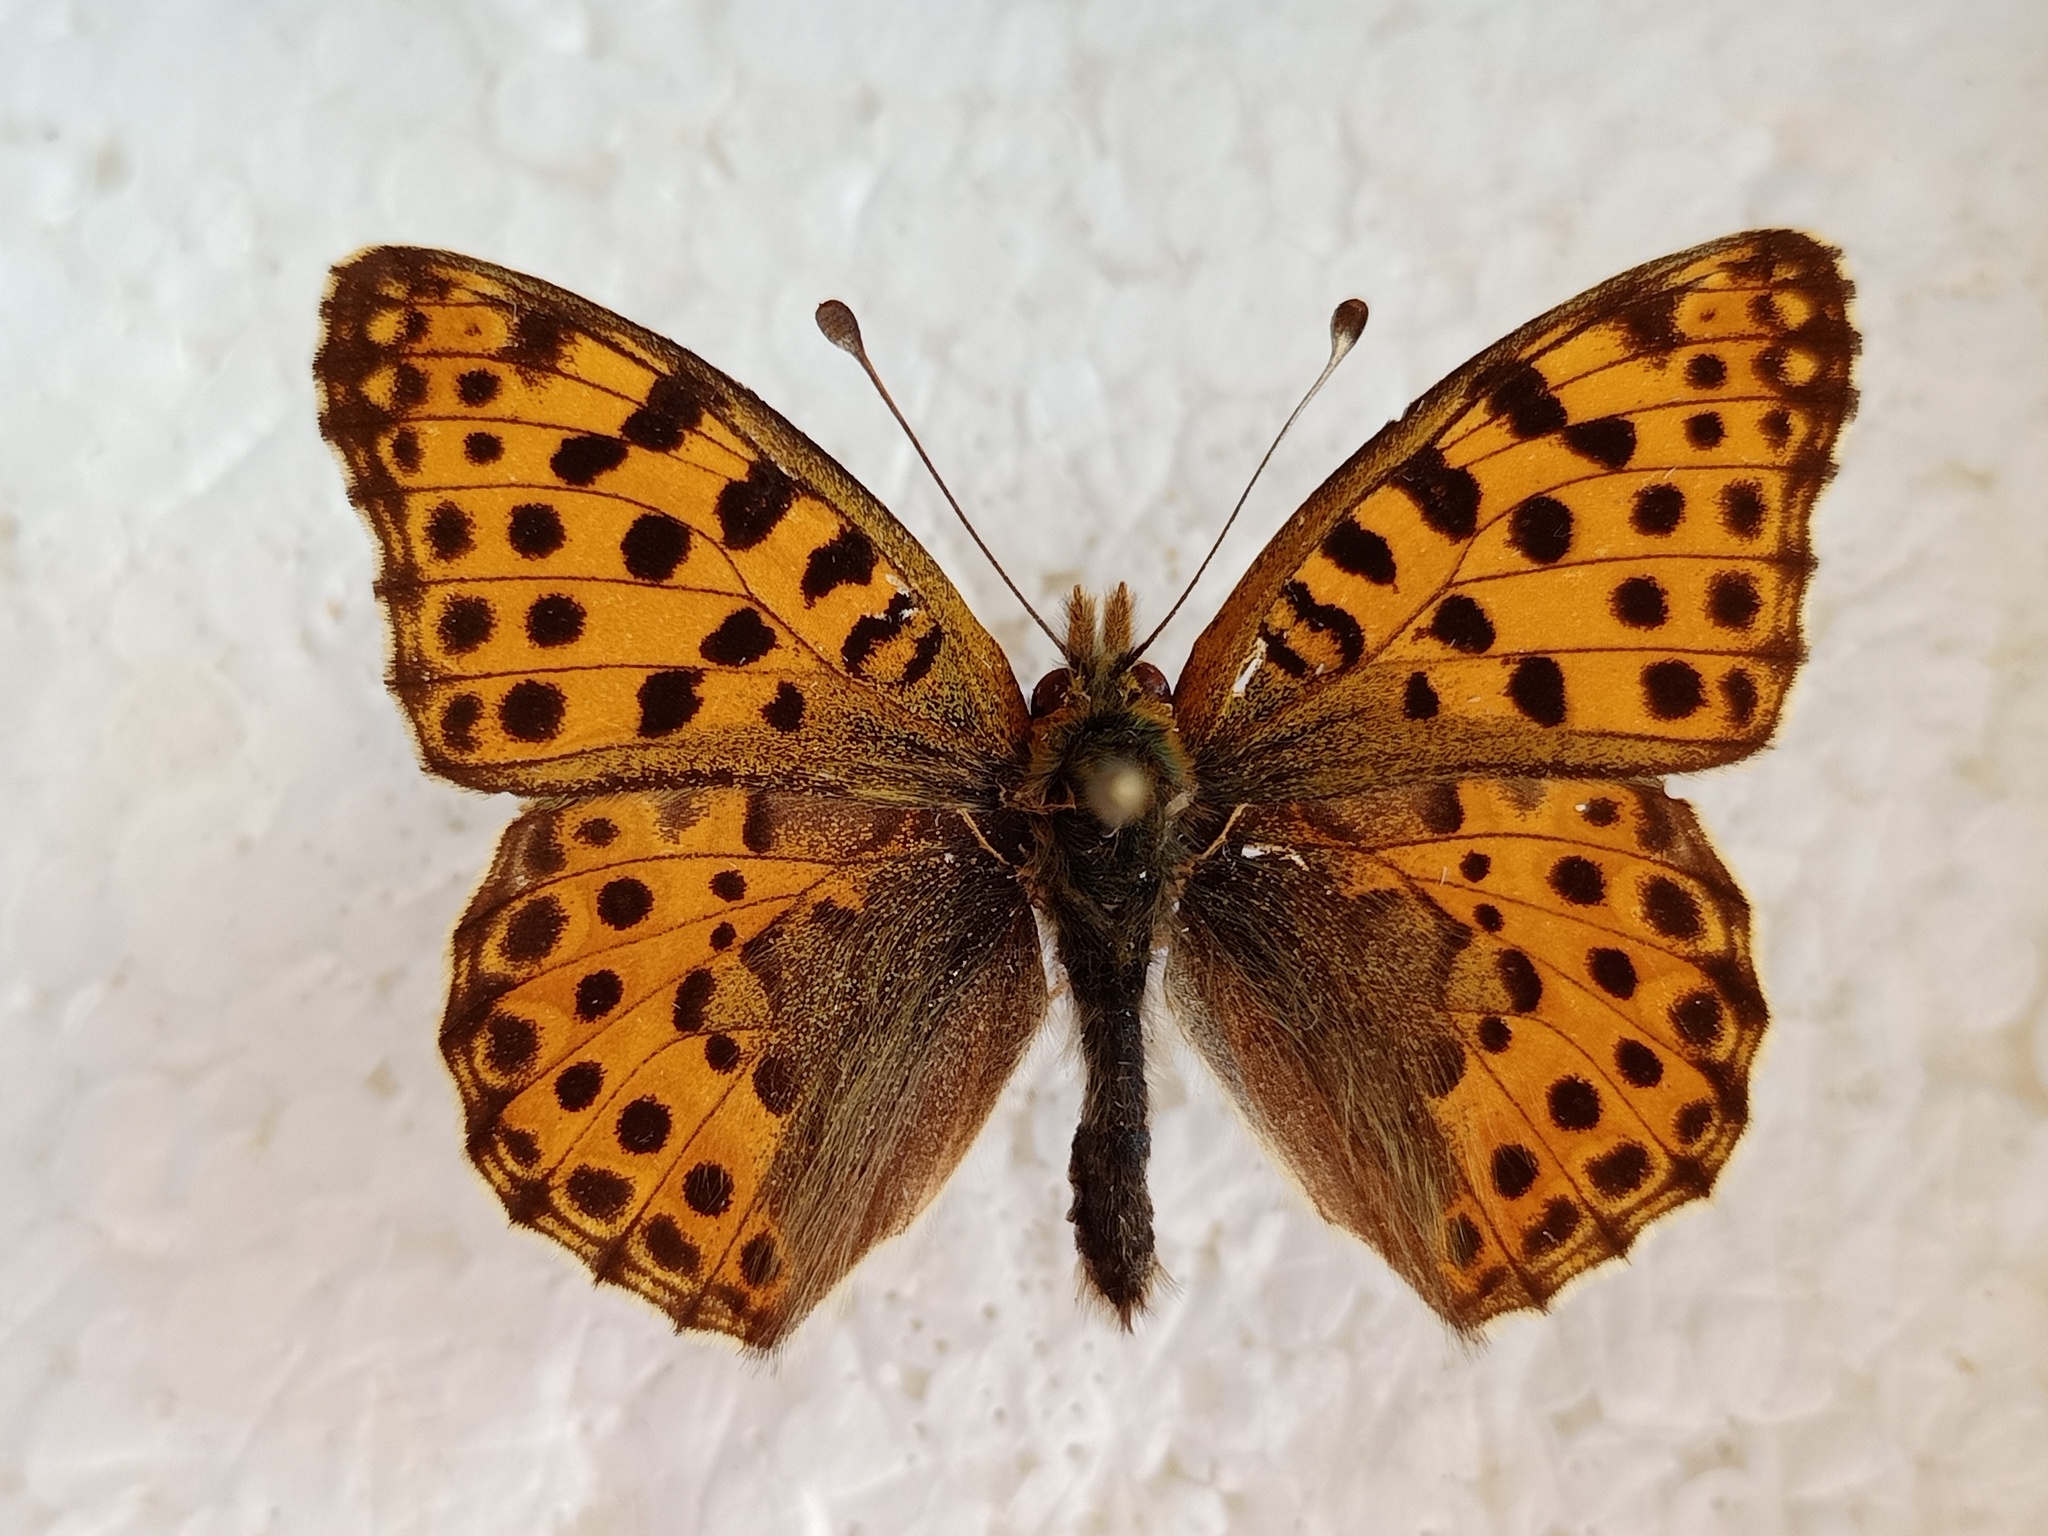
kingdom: Animalia
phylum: Arthropoda
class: Insecta
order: Lepidoptera
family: Nymphalidae
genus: Issoria
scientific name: Issoria lathonia
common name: Queen of spain fritillary
